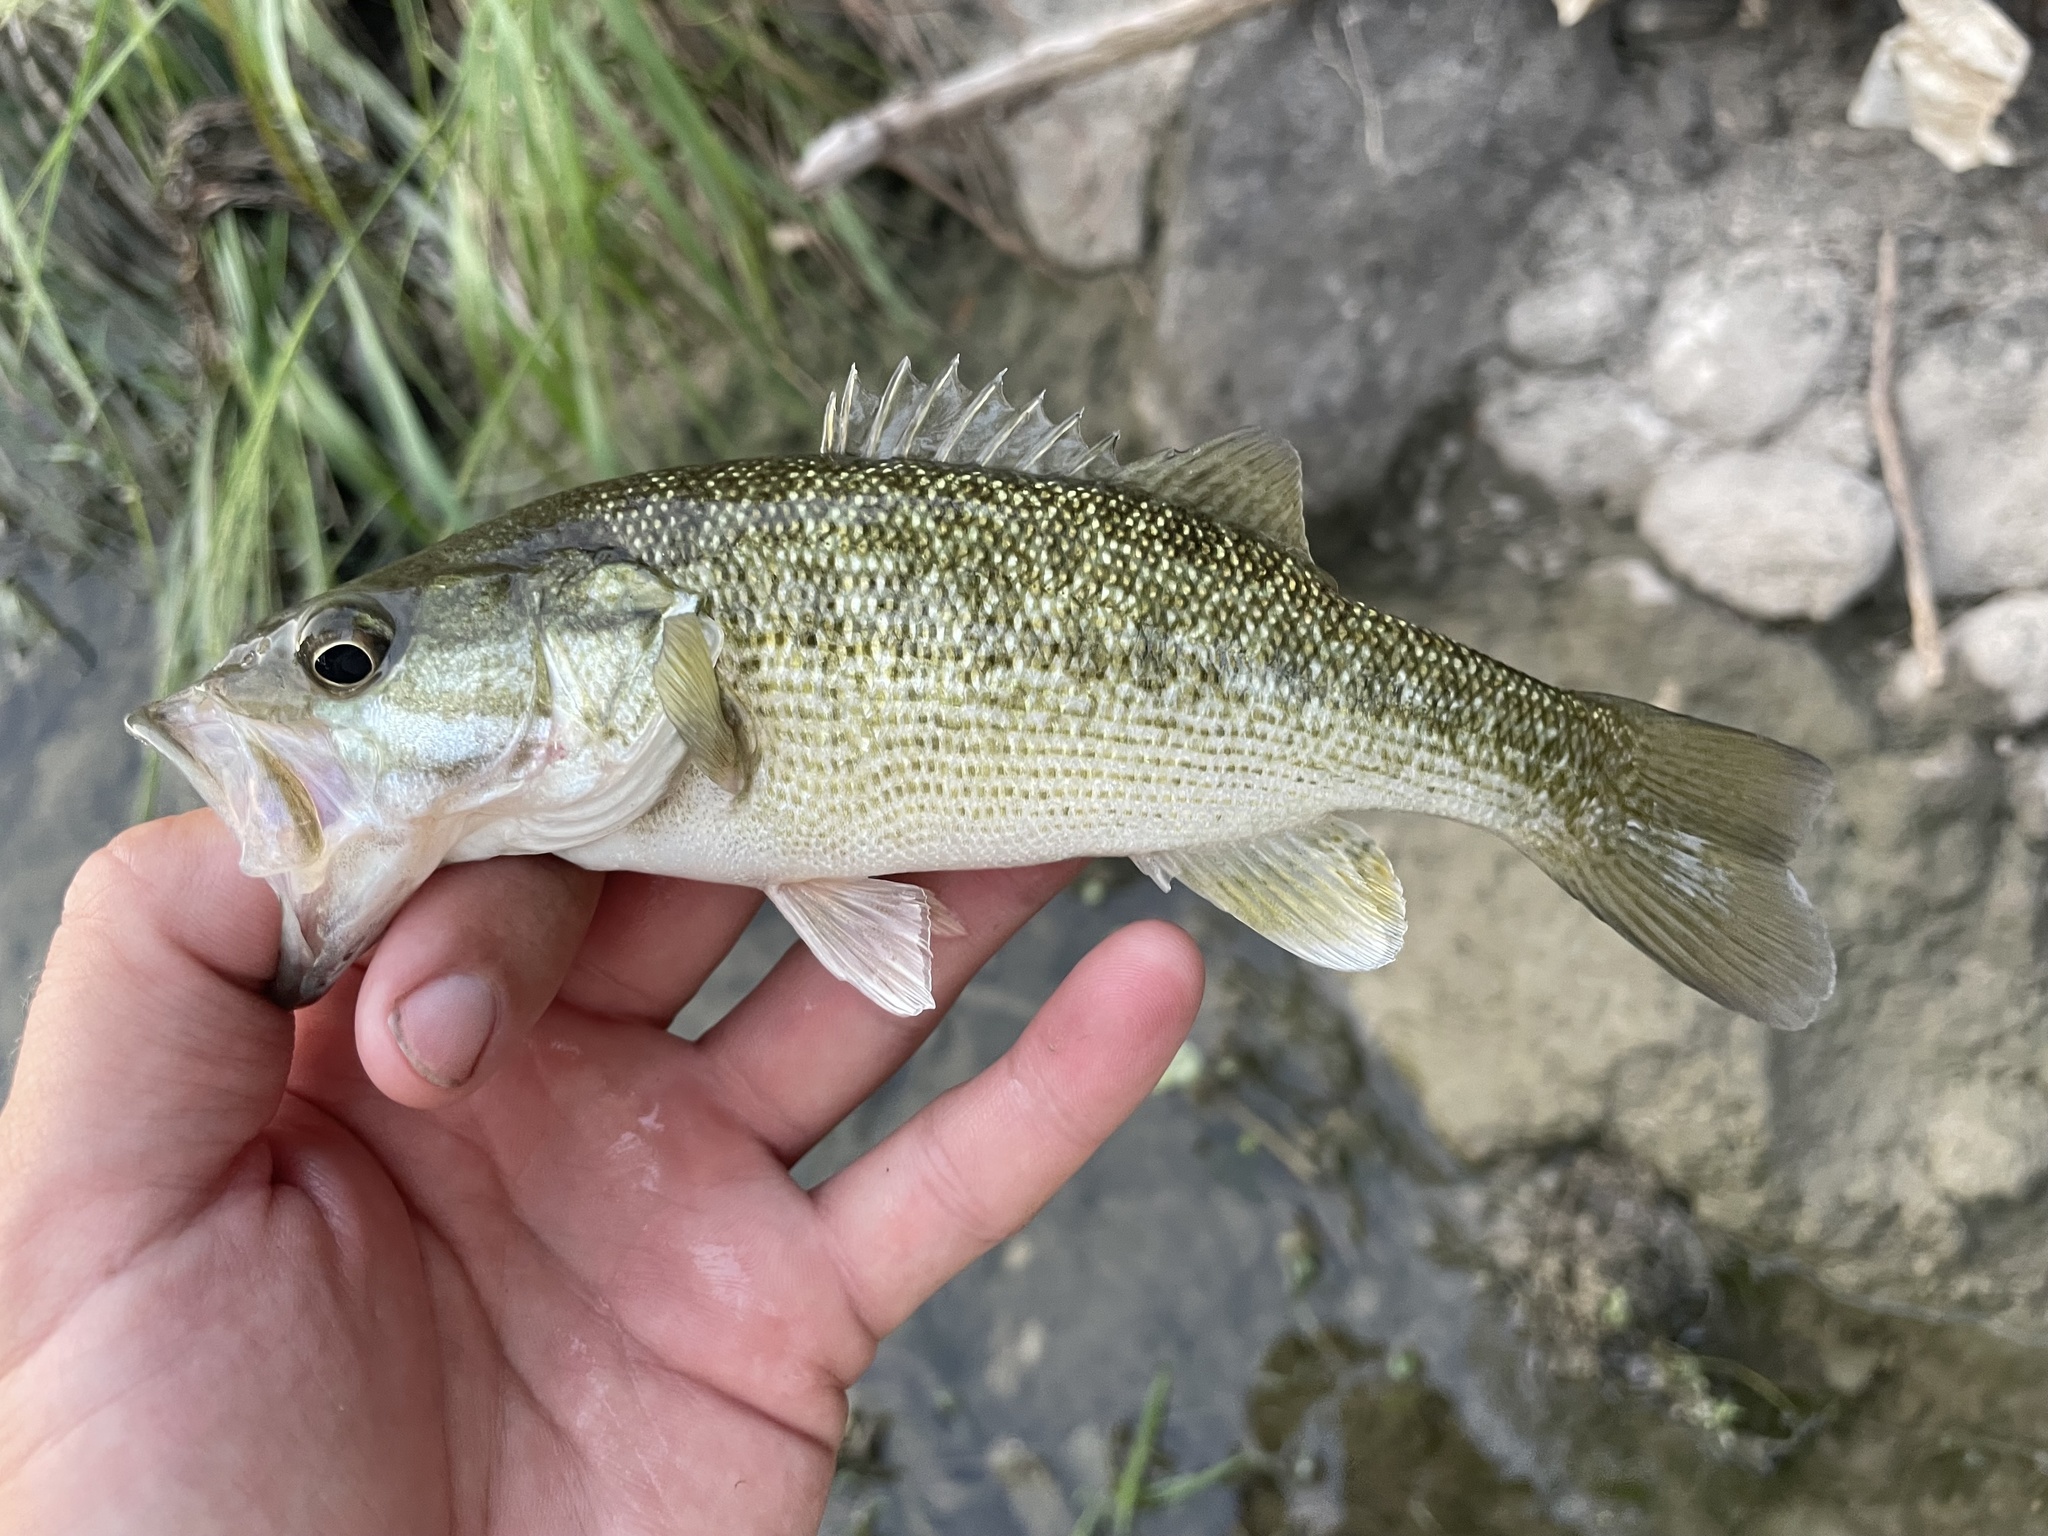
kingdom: Animalia
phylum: Chordata
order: Perciformes
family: Centrarchidae
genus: Micropterus
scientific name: Micropterus treculii
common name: Guadalupe bass
